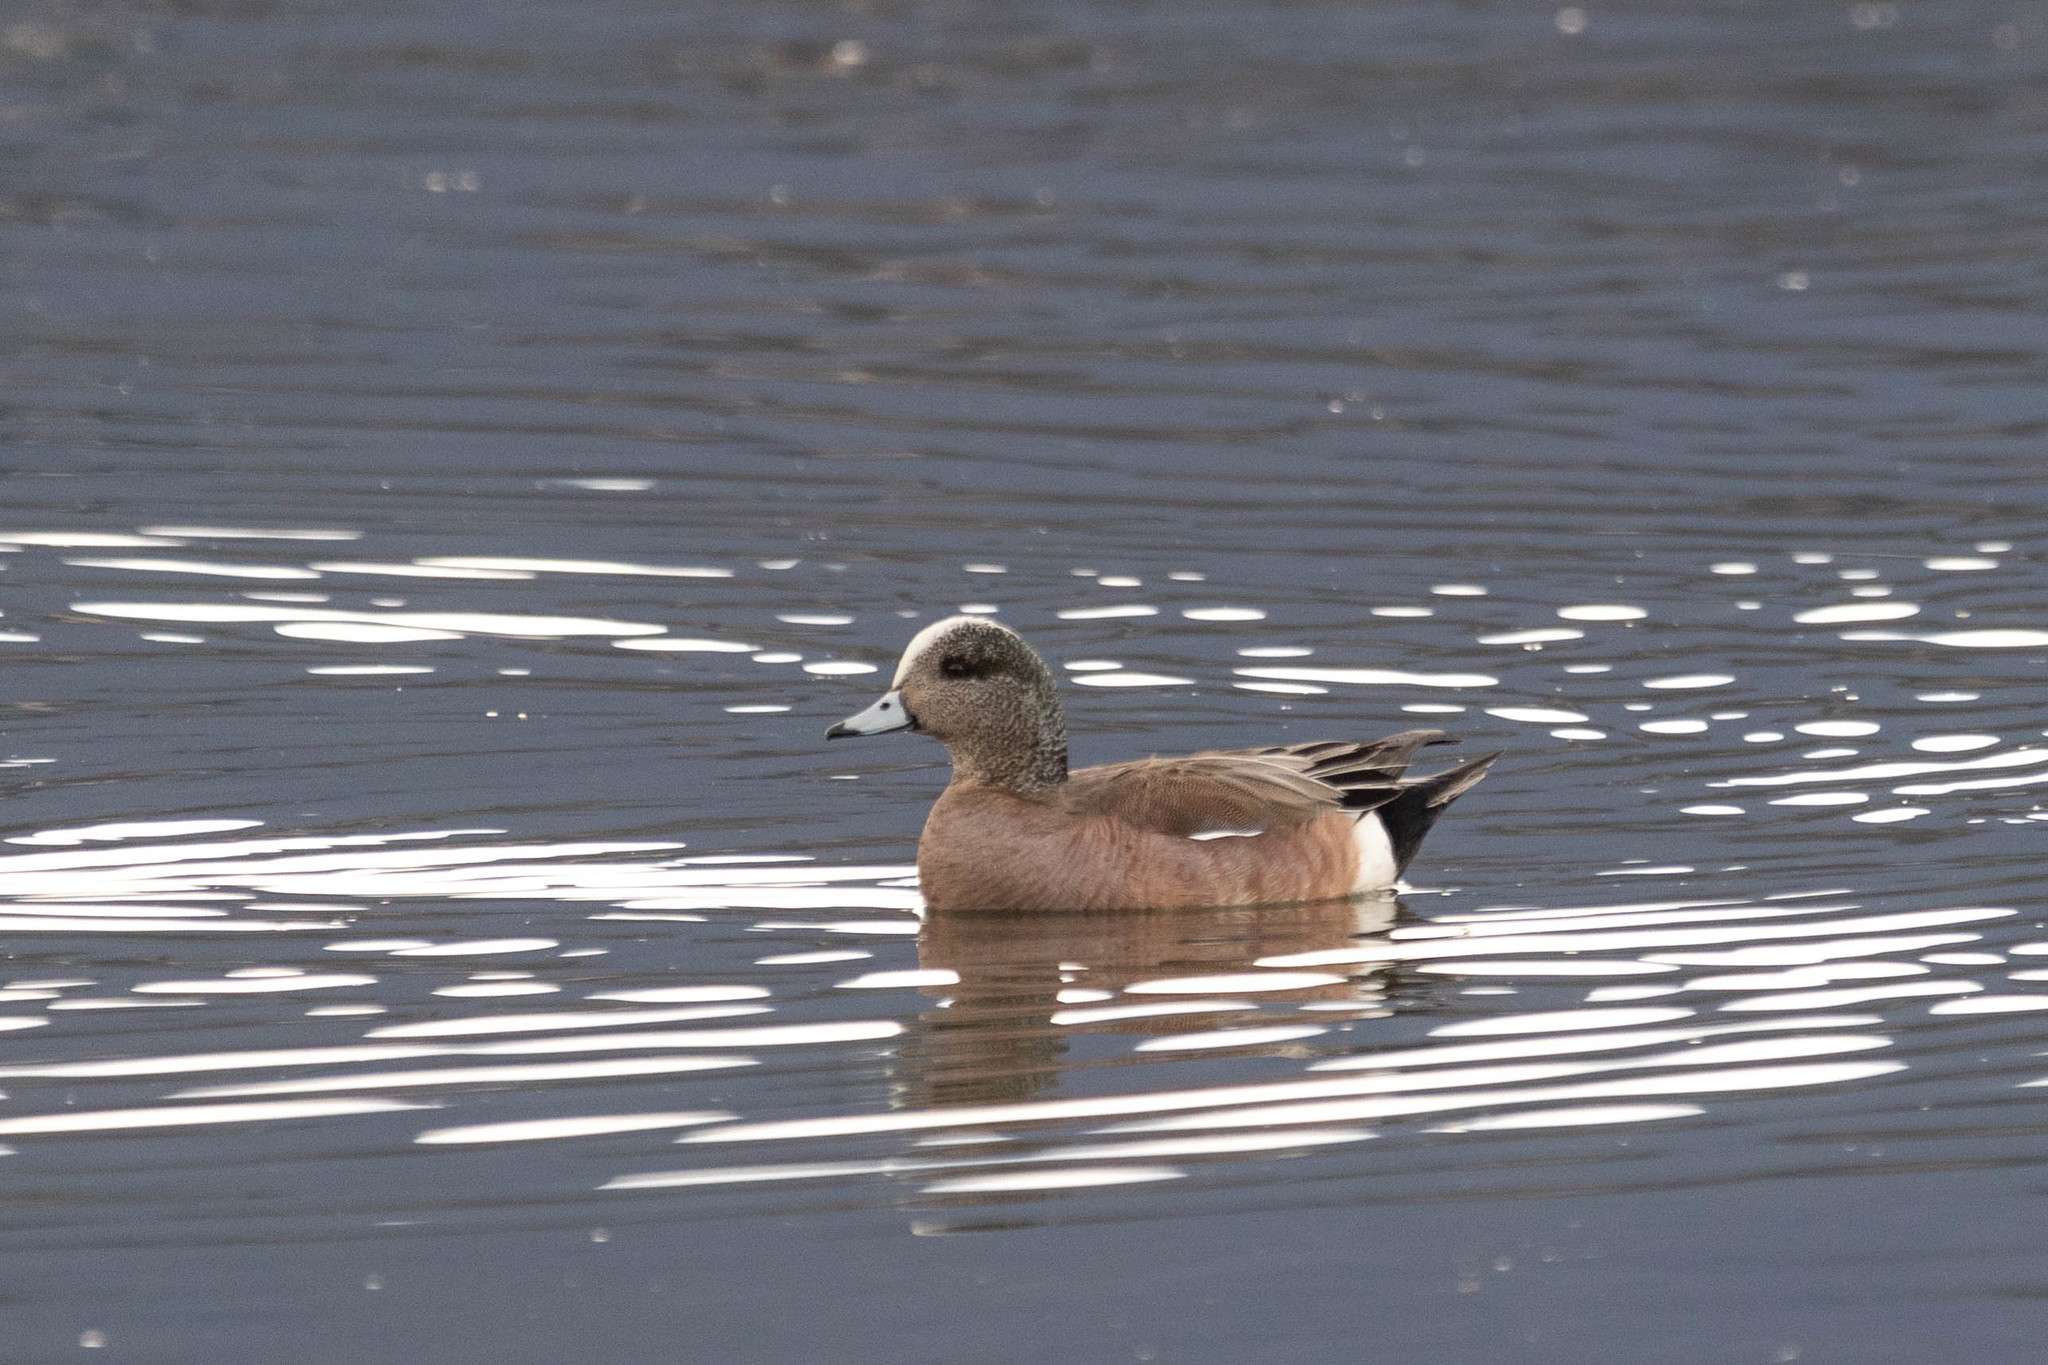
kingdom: Animalia
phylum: Chordata
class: Aves
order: Anseriformes
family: Anatidae
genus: Mareca
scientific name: Mareca americana
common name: American wigeon
